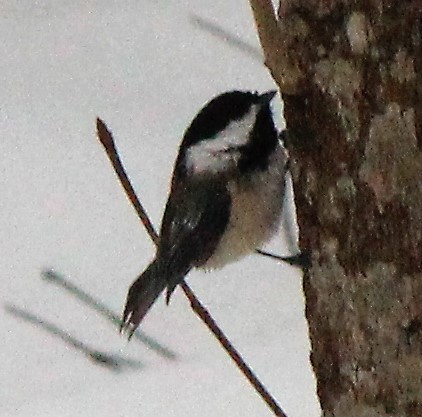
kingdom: Animalia
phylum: Chordata
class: Aves
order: Passeriformes
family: Paridae
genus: Poecile
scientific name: Poecile atricapillus
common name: Black-capped chickadee
